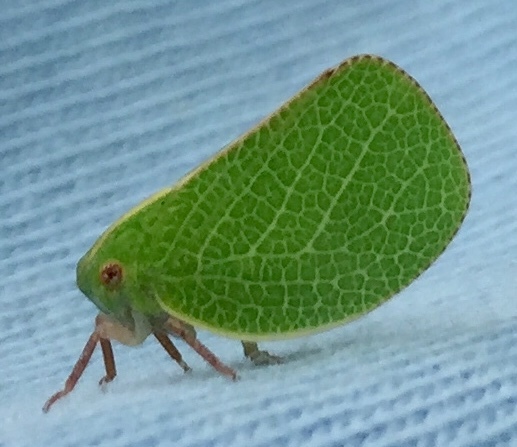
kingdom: Animalia
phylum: Arthropoda
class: Insecta
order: Hemiptera
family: Acanaloniidae
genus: Acanalonia
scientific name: Acanalonia servillei
